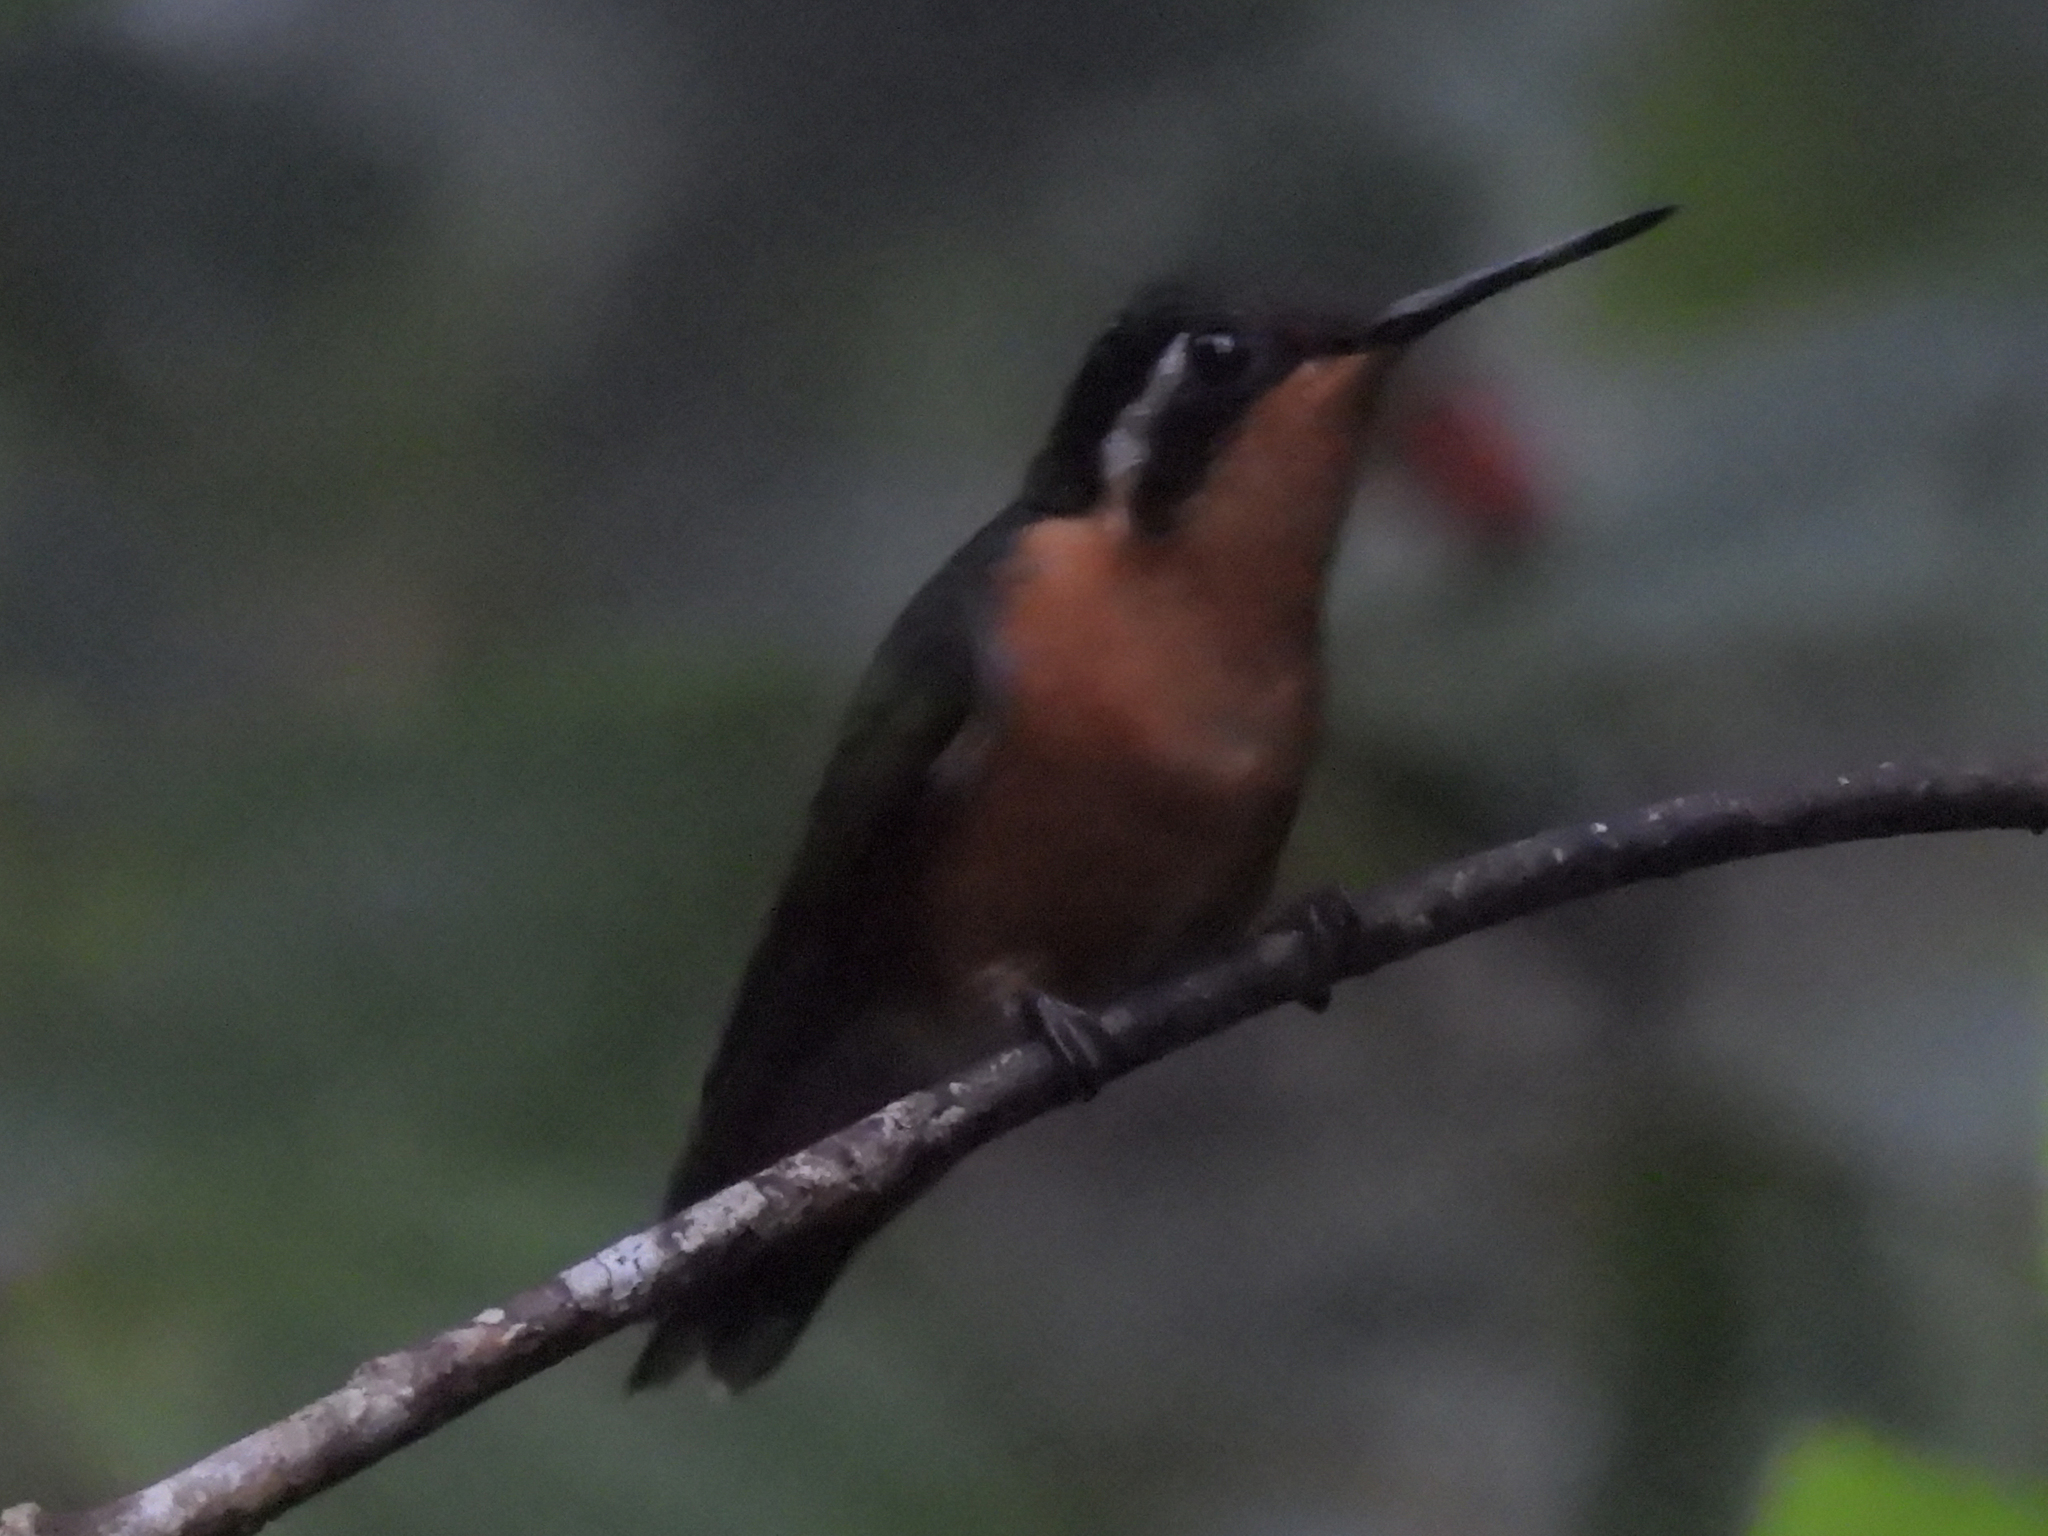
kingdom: Animalia
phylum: Chordata
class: Aves
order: Apodiformes
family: Trochilidae
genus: Lampornis
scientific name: Lampornis calolaemus
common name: Purple-throated mountain-gem
